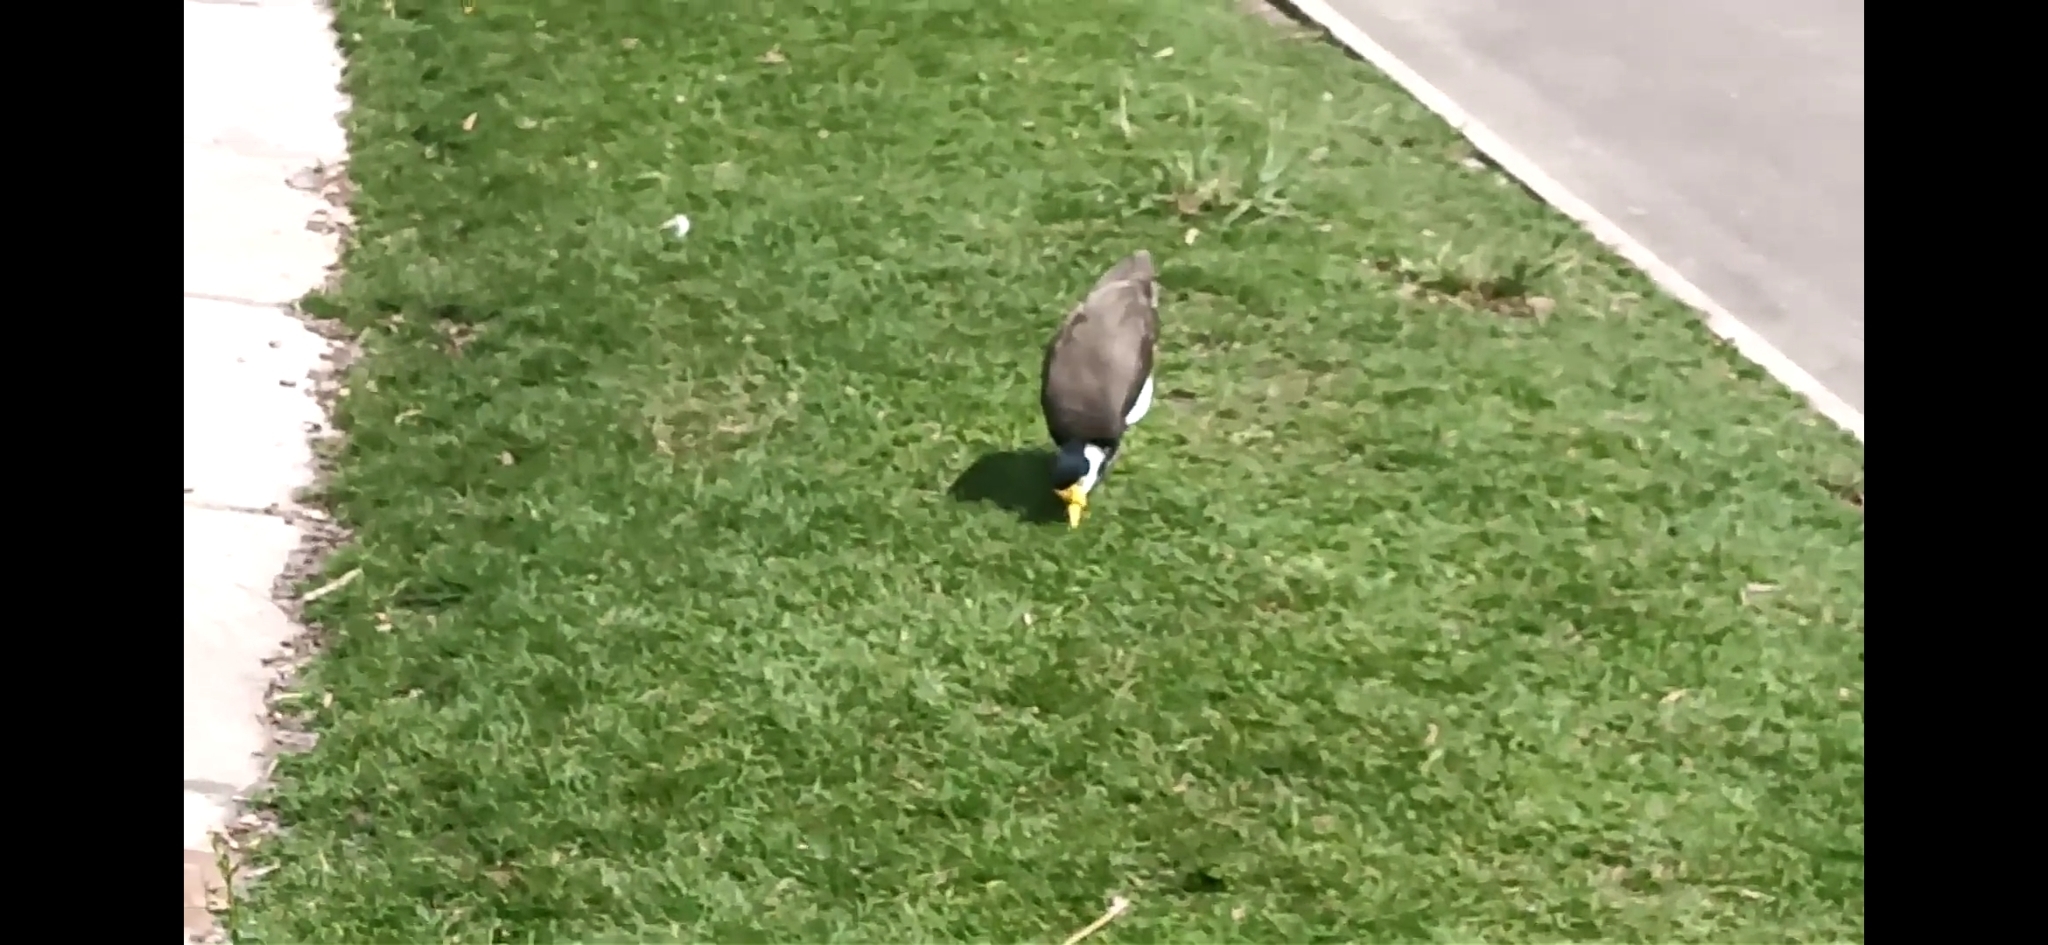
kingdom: Animalia
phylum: Chordata
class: Aves
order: Charadriiformes
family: Charadriidae
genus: Vanellus
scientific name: Vanellus miles
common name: Masked lapwing
